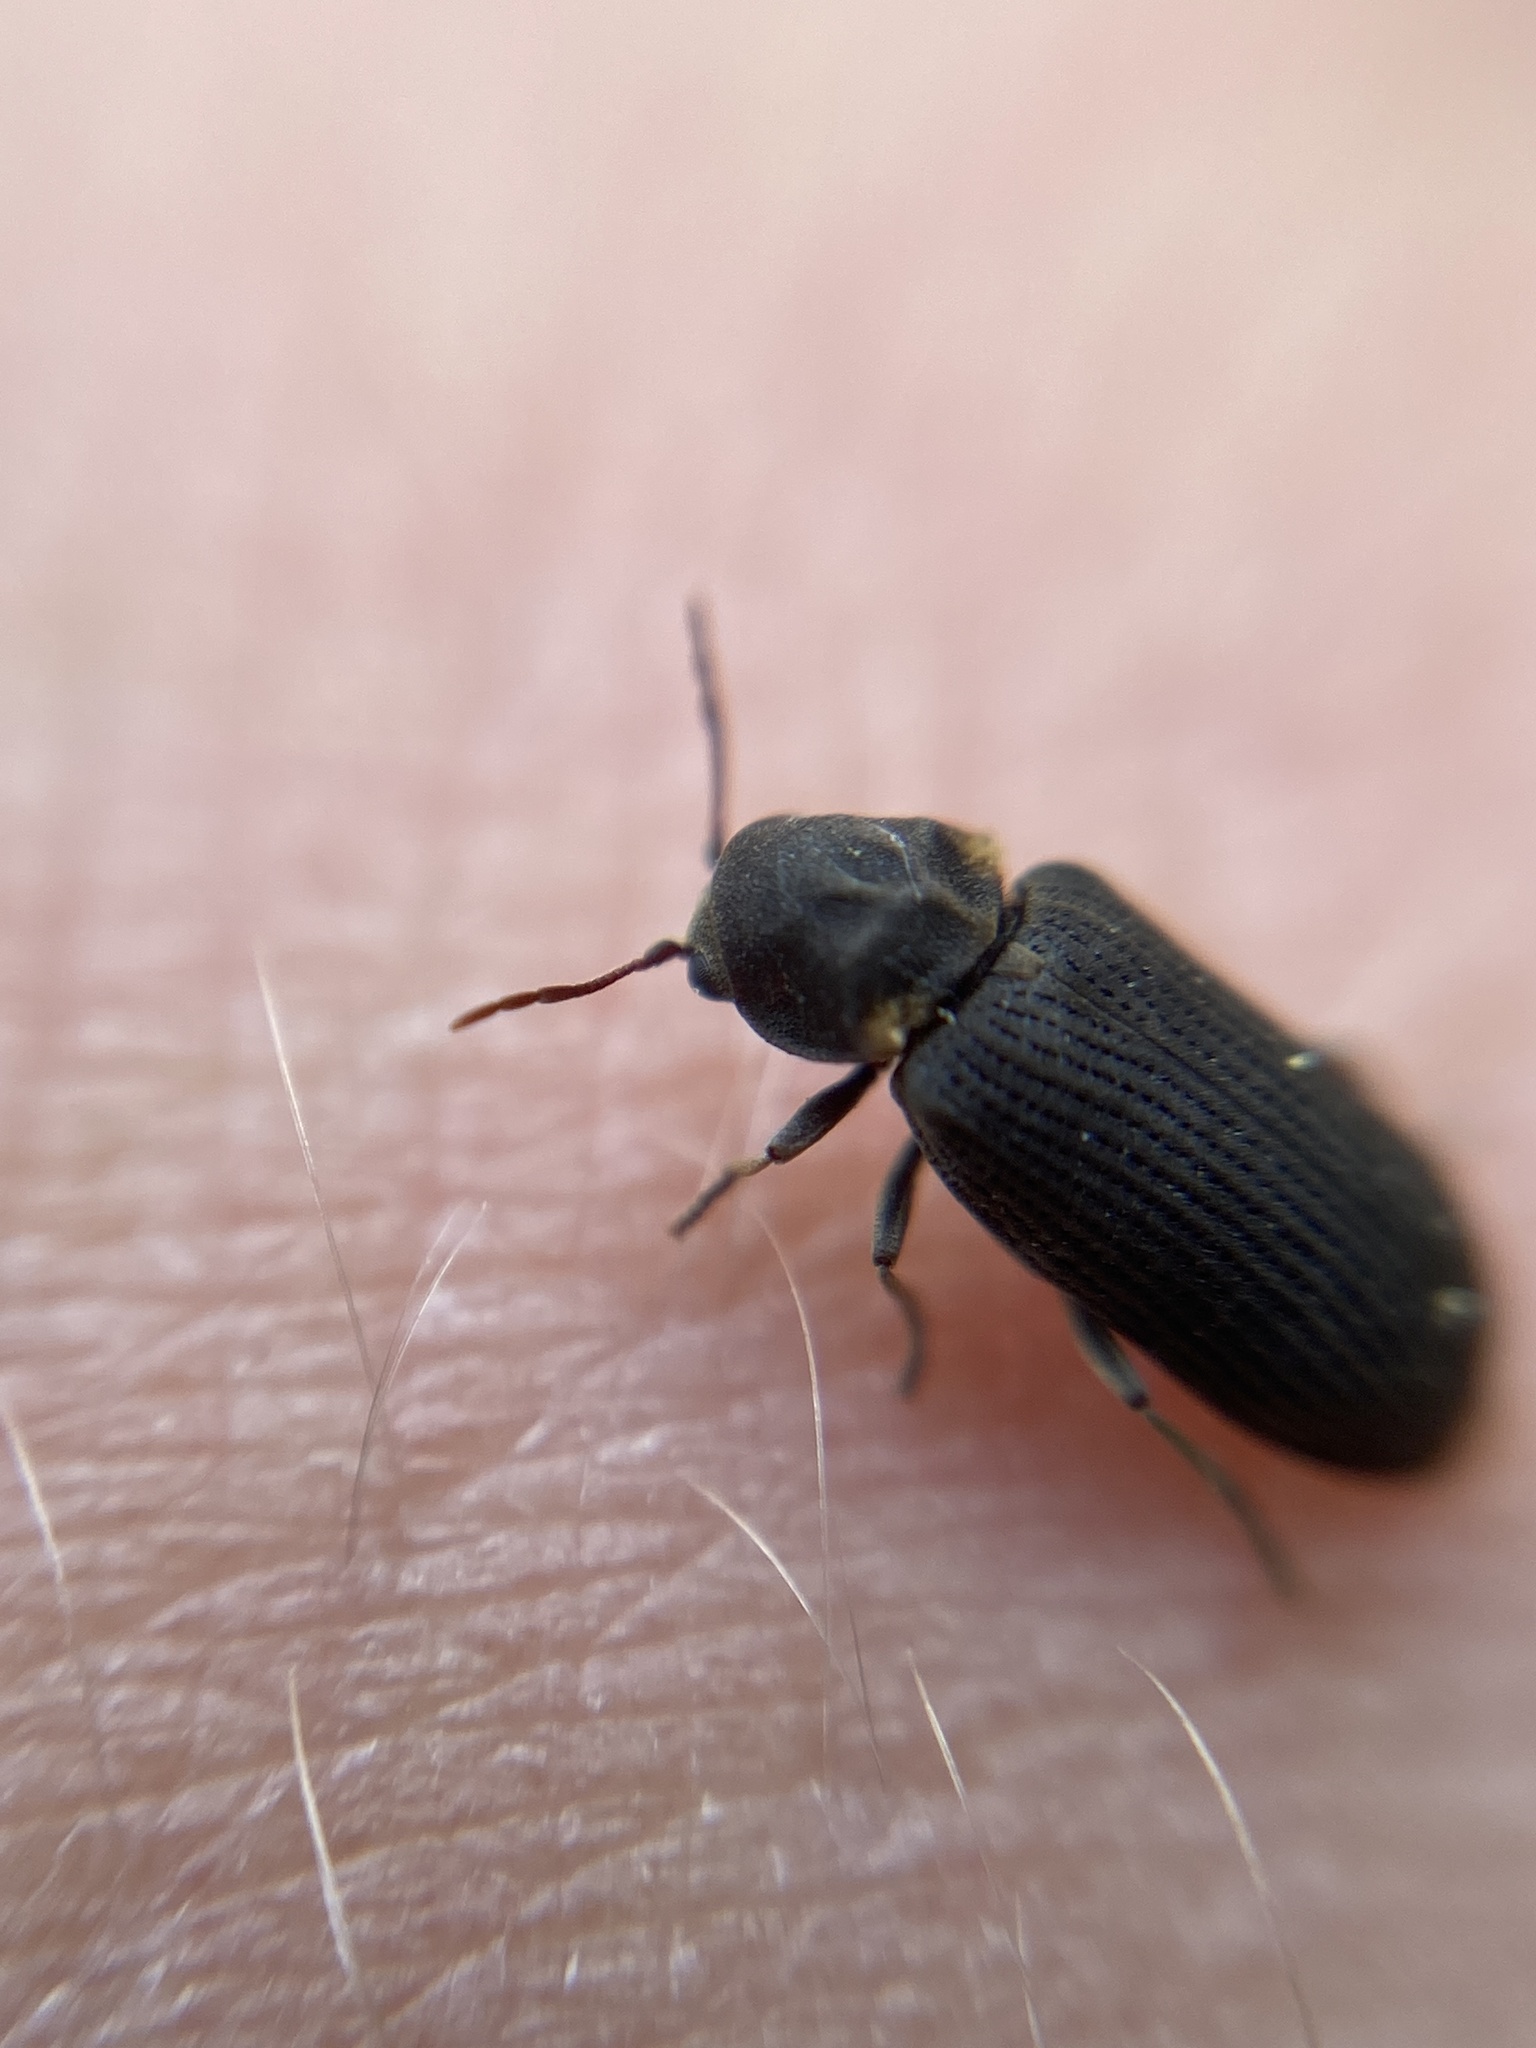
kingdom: Animalia
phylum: Arthropoda
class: Insecta
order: Coleoptera
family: Anobiidae
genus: Hadrobregmus
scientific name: Hadrobregmus pertinax
